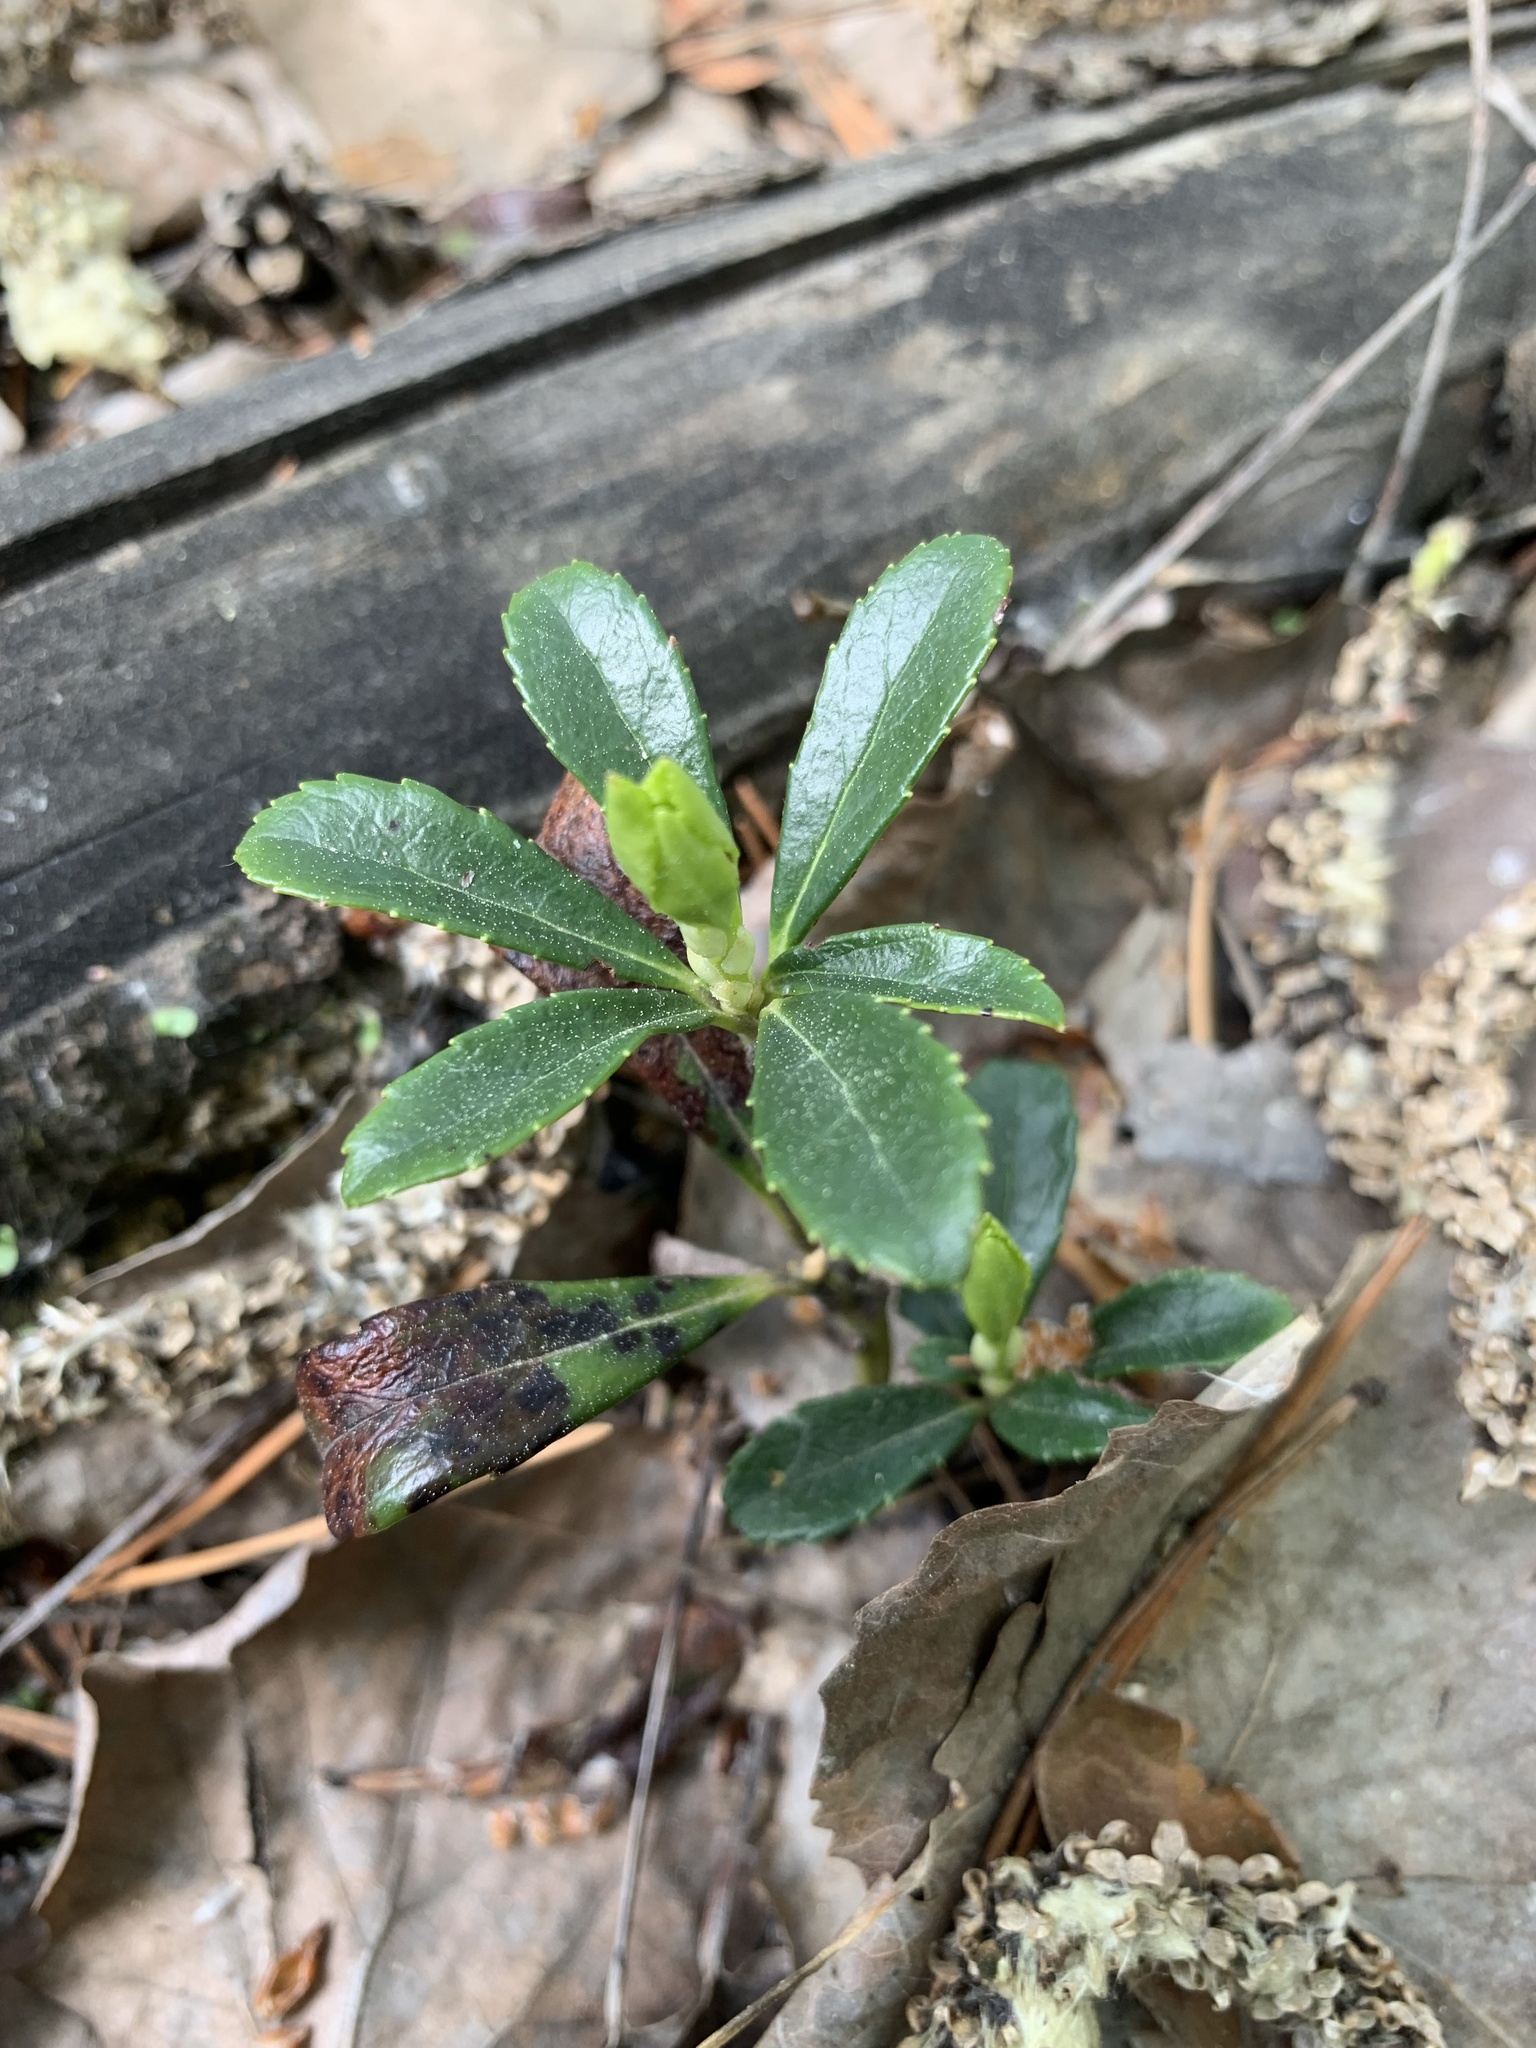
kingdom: Plantae
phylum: Tracheophyta
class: Magnoliopsida
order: Ericales
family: Ericaceae
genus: Chimaphila
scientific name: Chimaphila umbellata
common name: Pipsissewa
